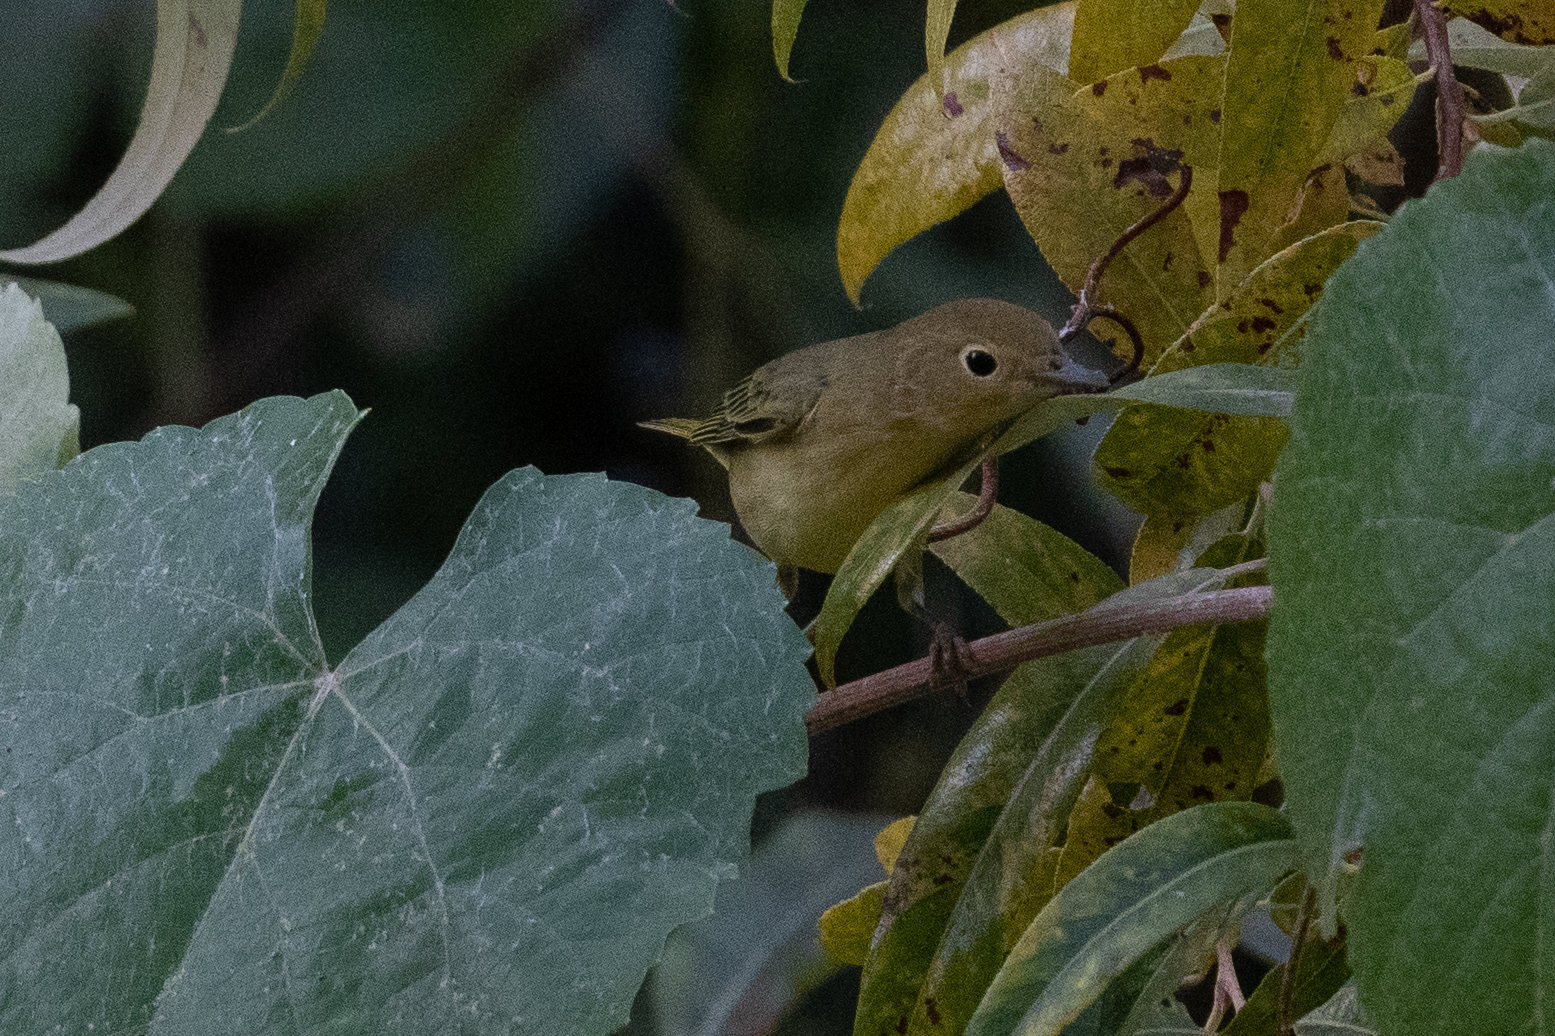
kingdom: Animalia
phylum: Chordata
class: Aves
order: Passeriformes
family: Parulidae
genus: Setophaga
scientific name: Setophaga petechia
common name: Yellow warbler
